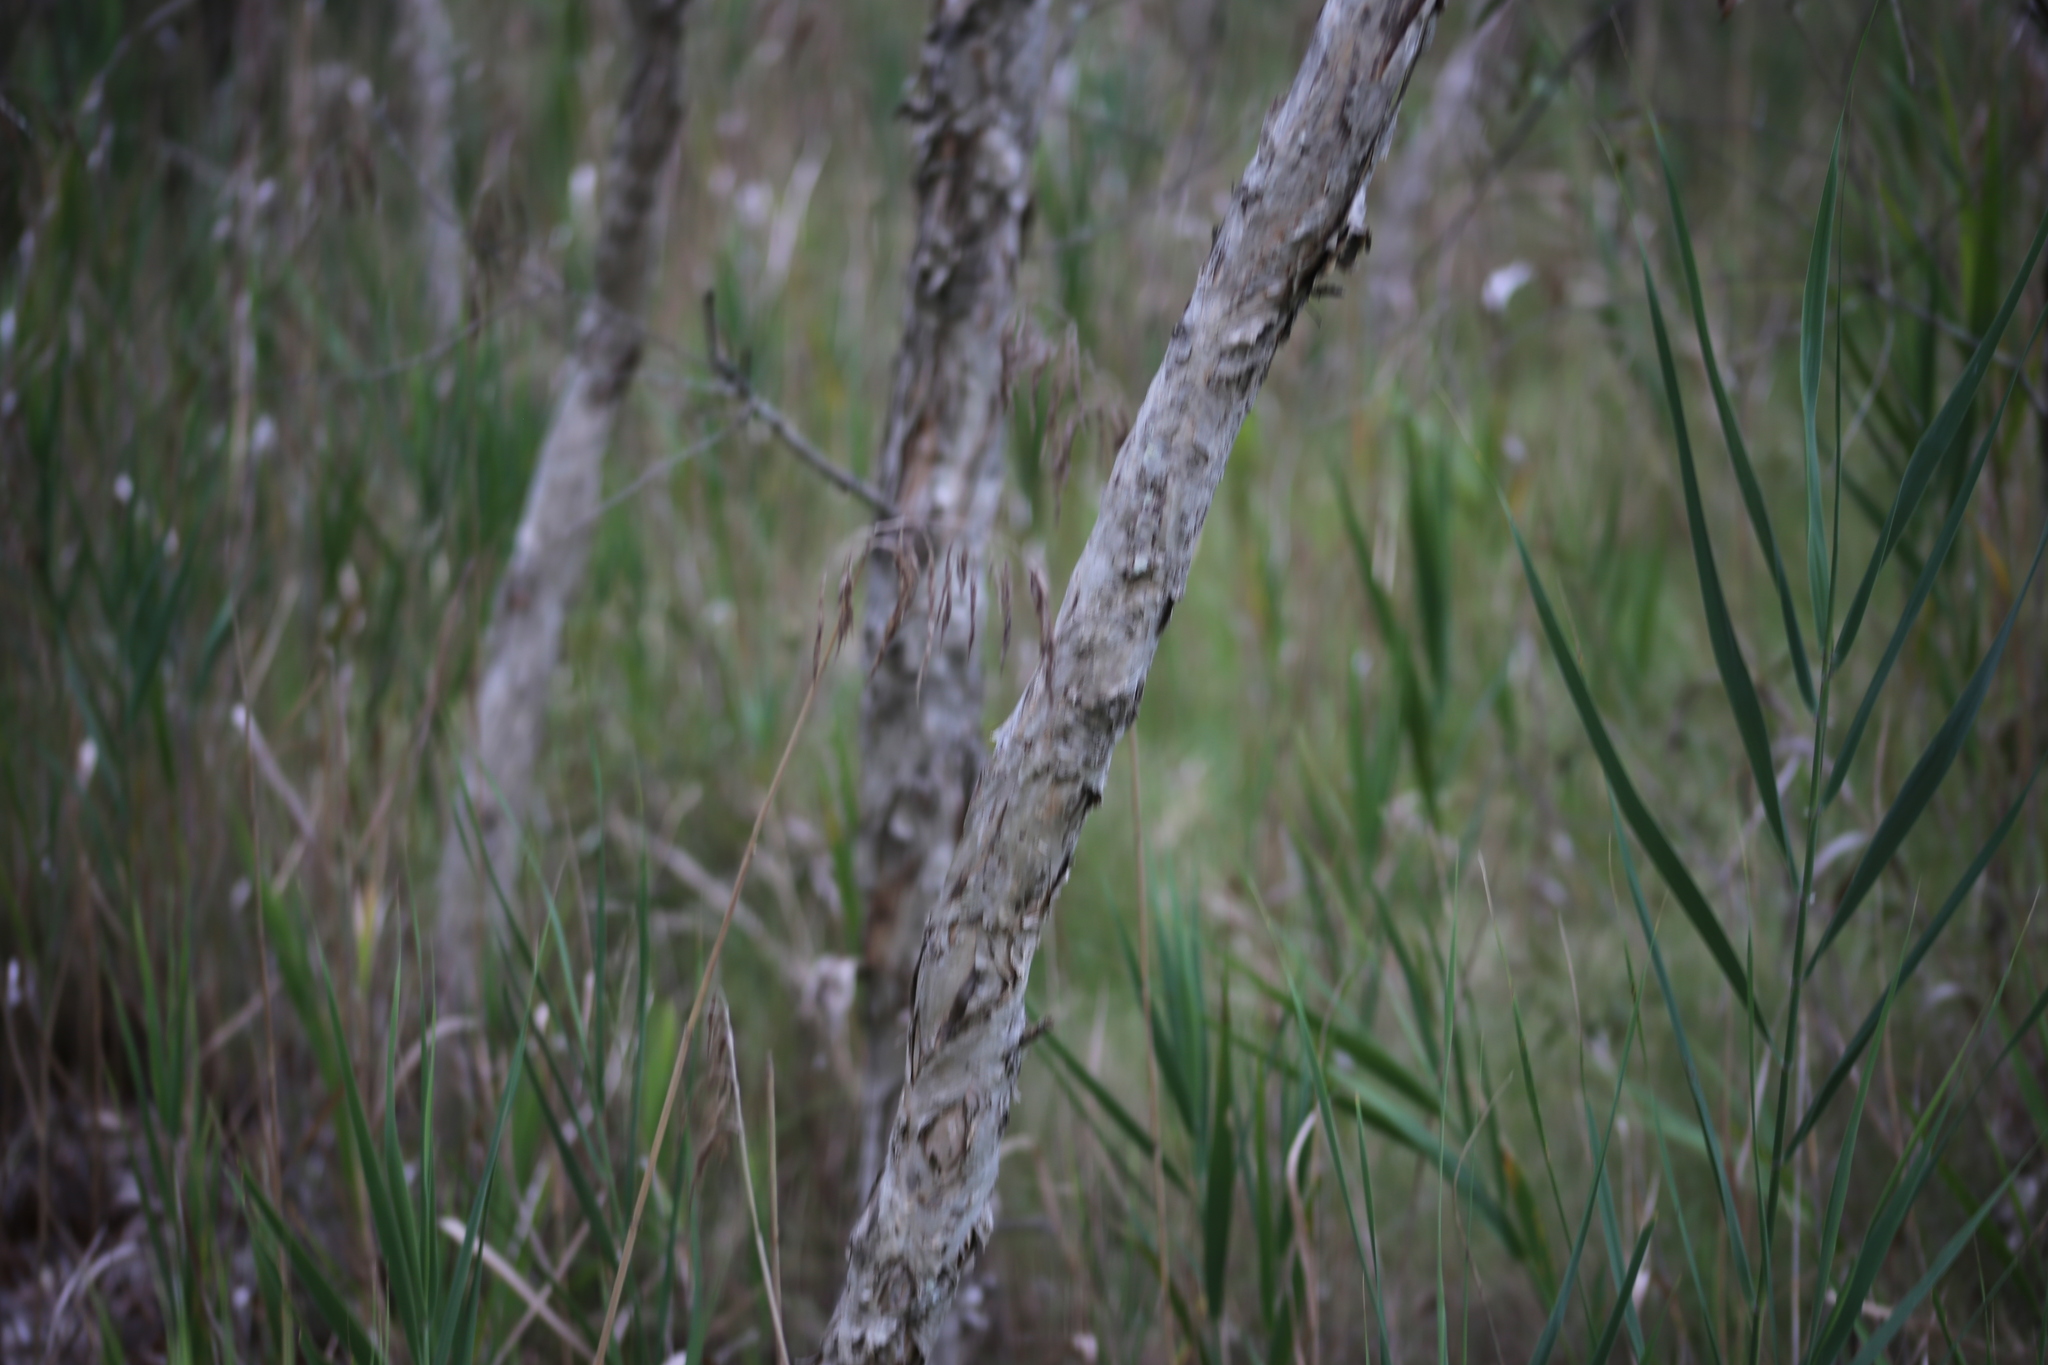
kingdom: Plantae
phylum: Tracheophyta
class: Magnoliopsida
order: Myrtales
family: Myrtaceae
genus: Melaleuca
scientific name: Melaleuca quinquenervia
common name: Punktree
